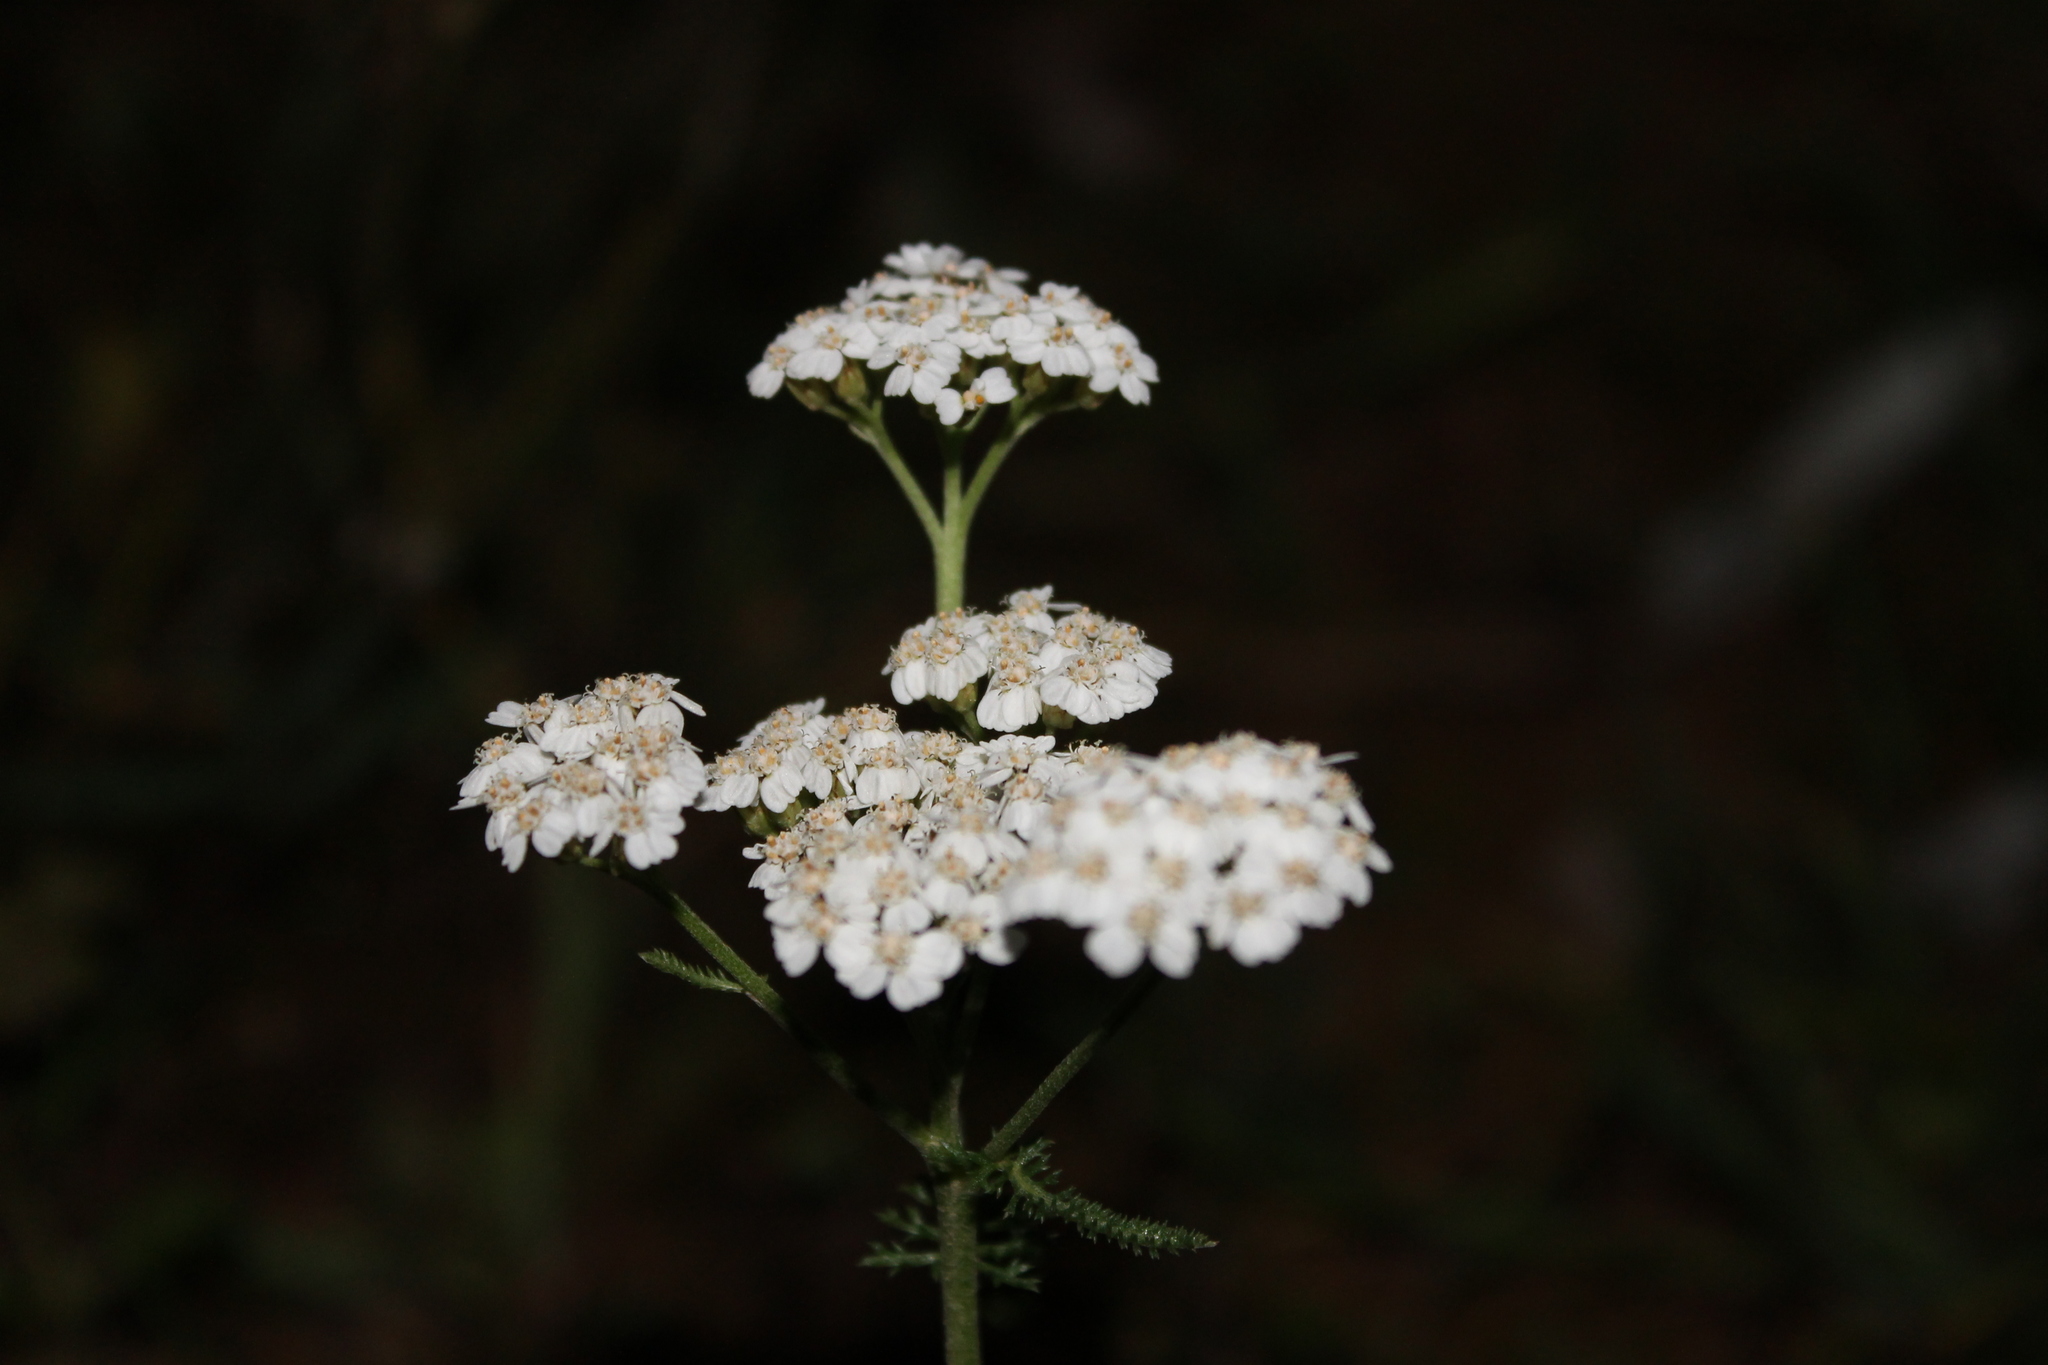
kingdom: Plantae
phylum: Tracheophyta
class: Magnoliopsida
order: Asterales
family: Asteraceae
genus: Achillea
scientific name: Achillea millefolium
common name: Yarrow
